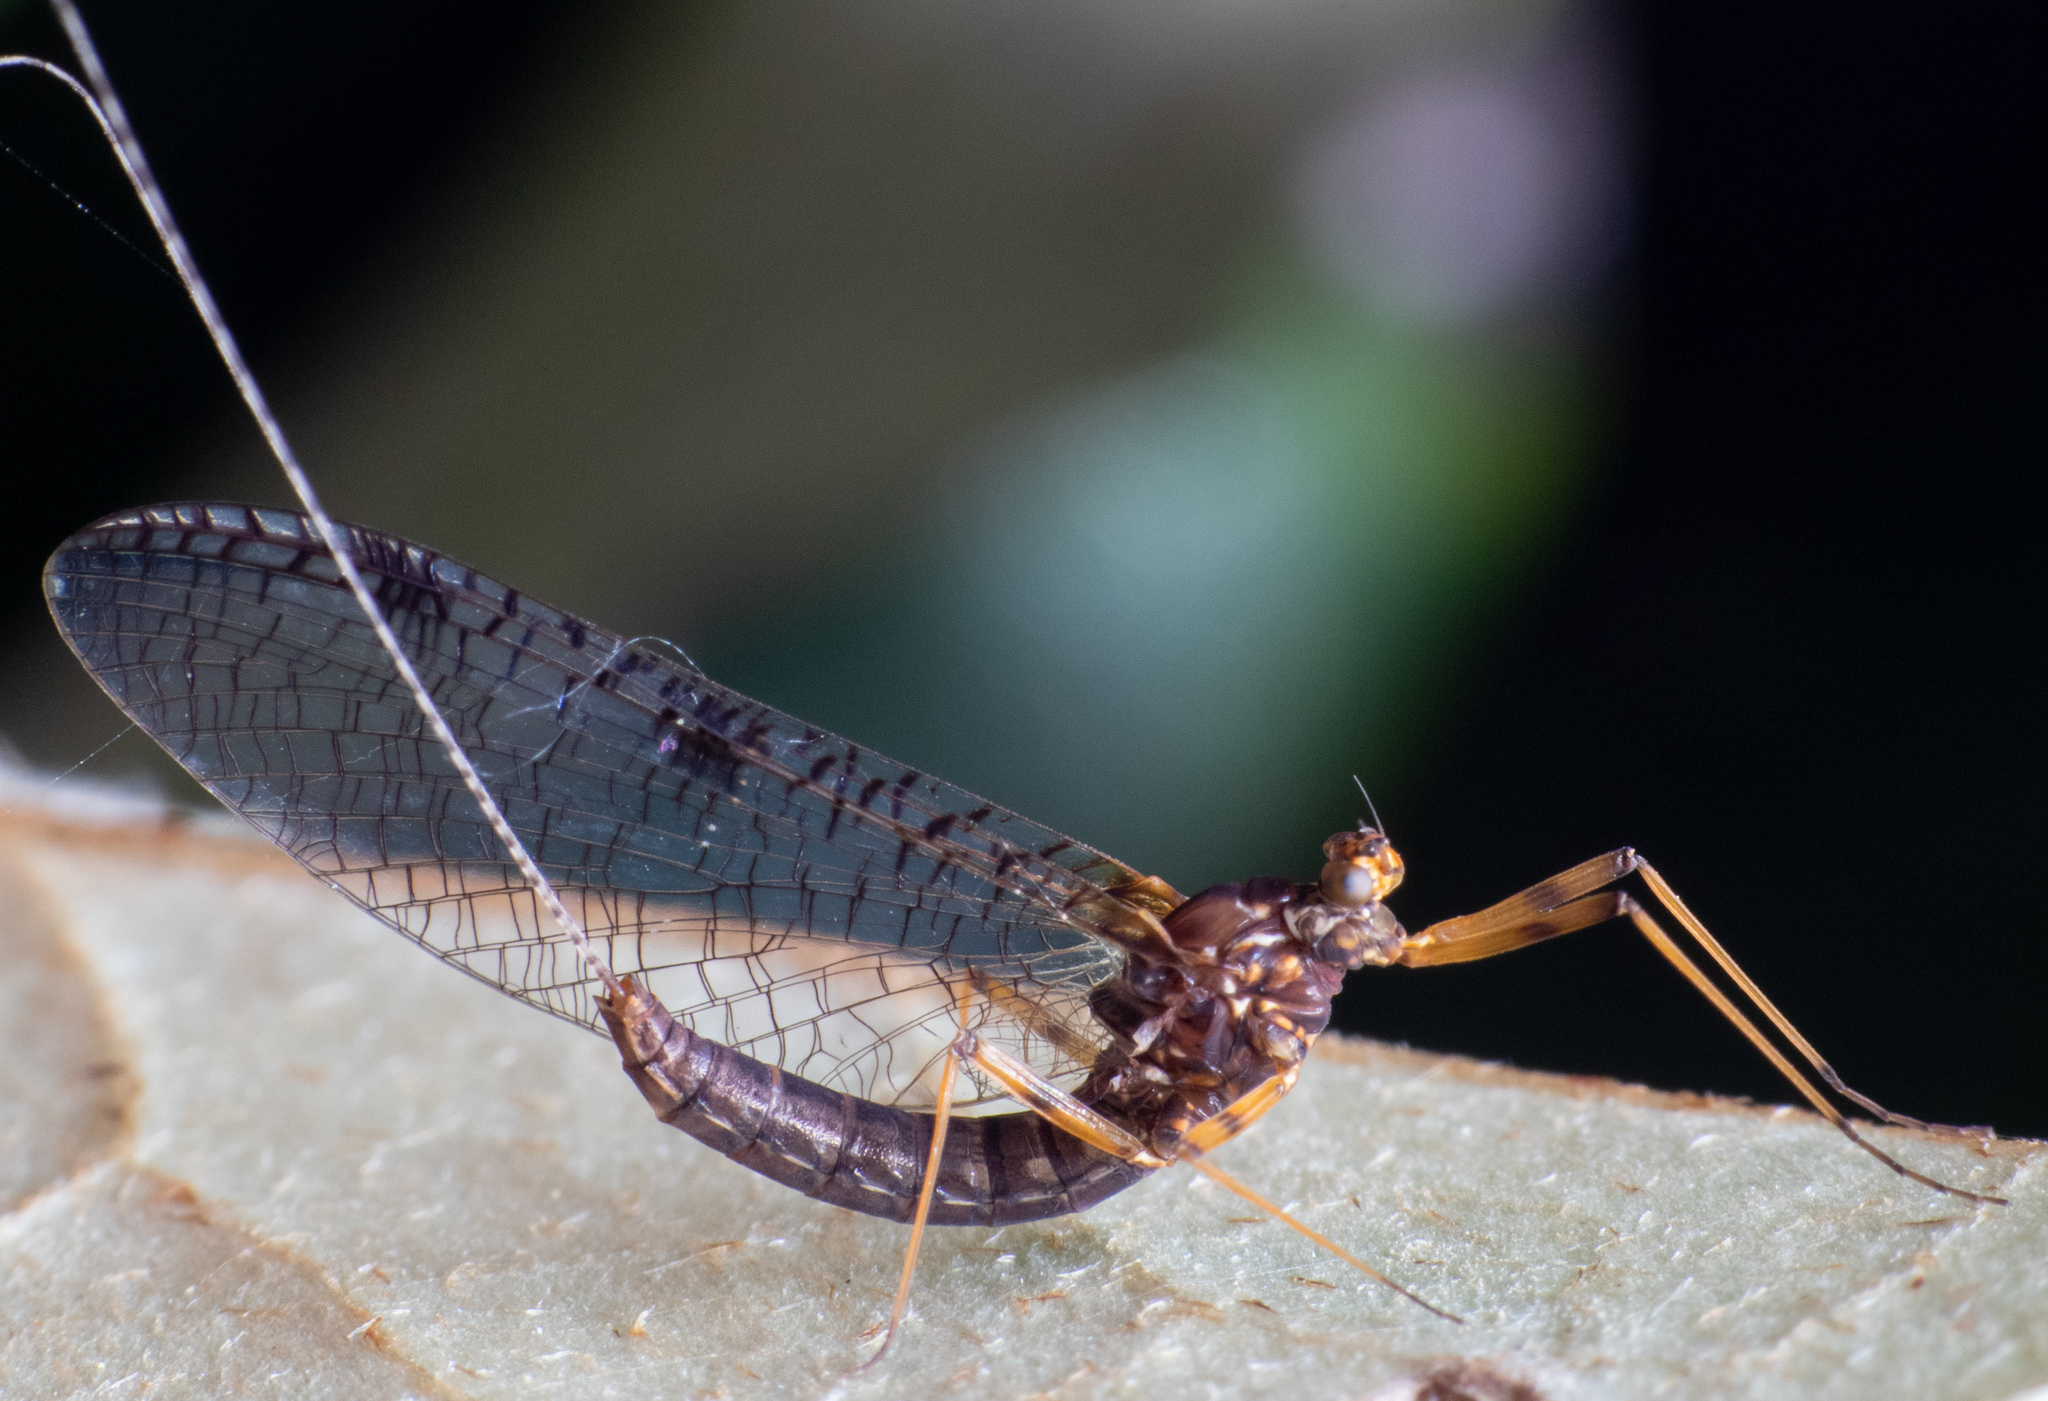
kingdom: Animalia
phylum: Arthropoda
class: Insecta
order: Ephemeroptera
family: Leptophlebiidae
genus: Zephlebia
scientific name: Zephlebia spectabilis
